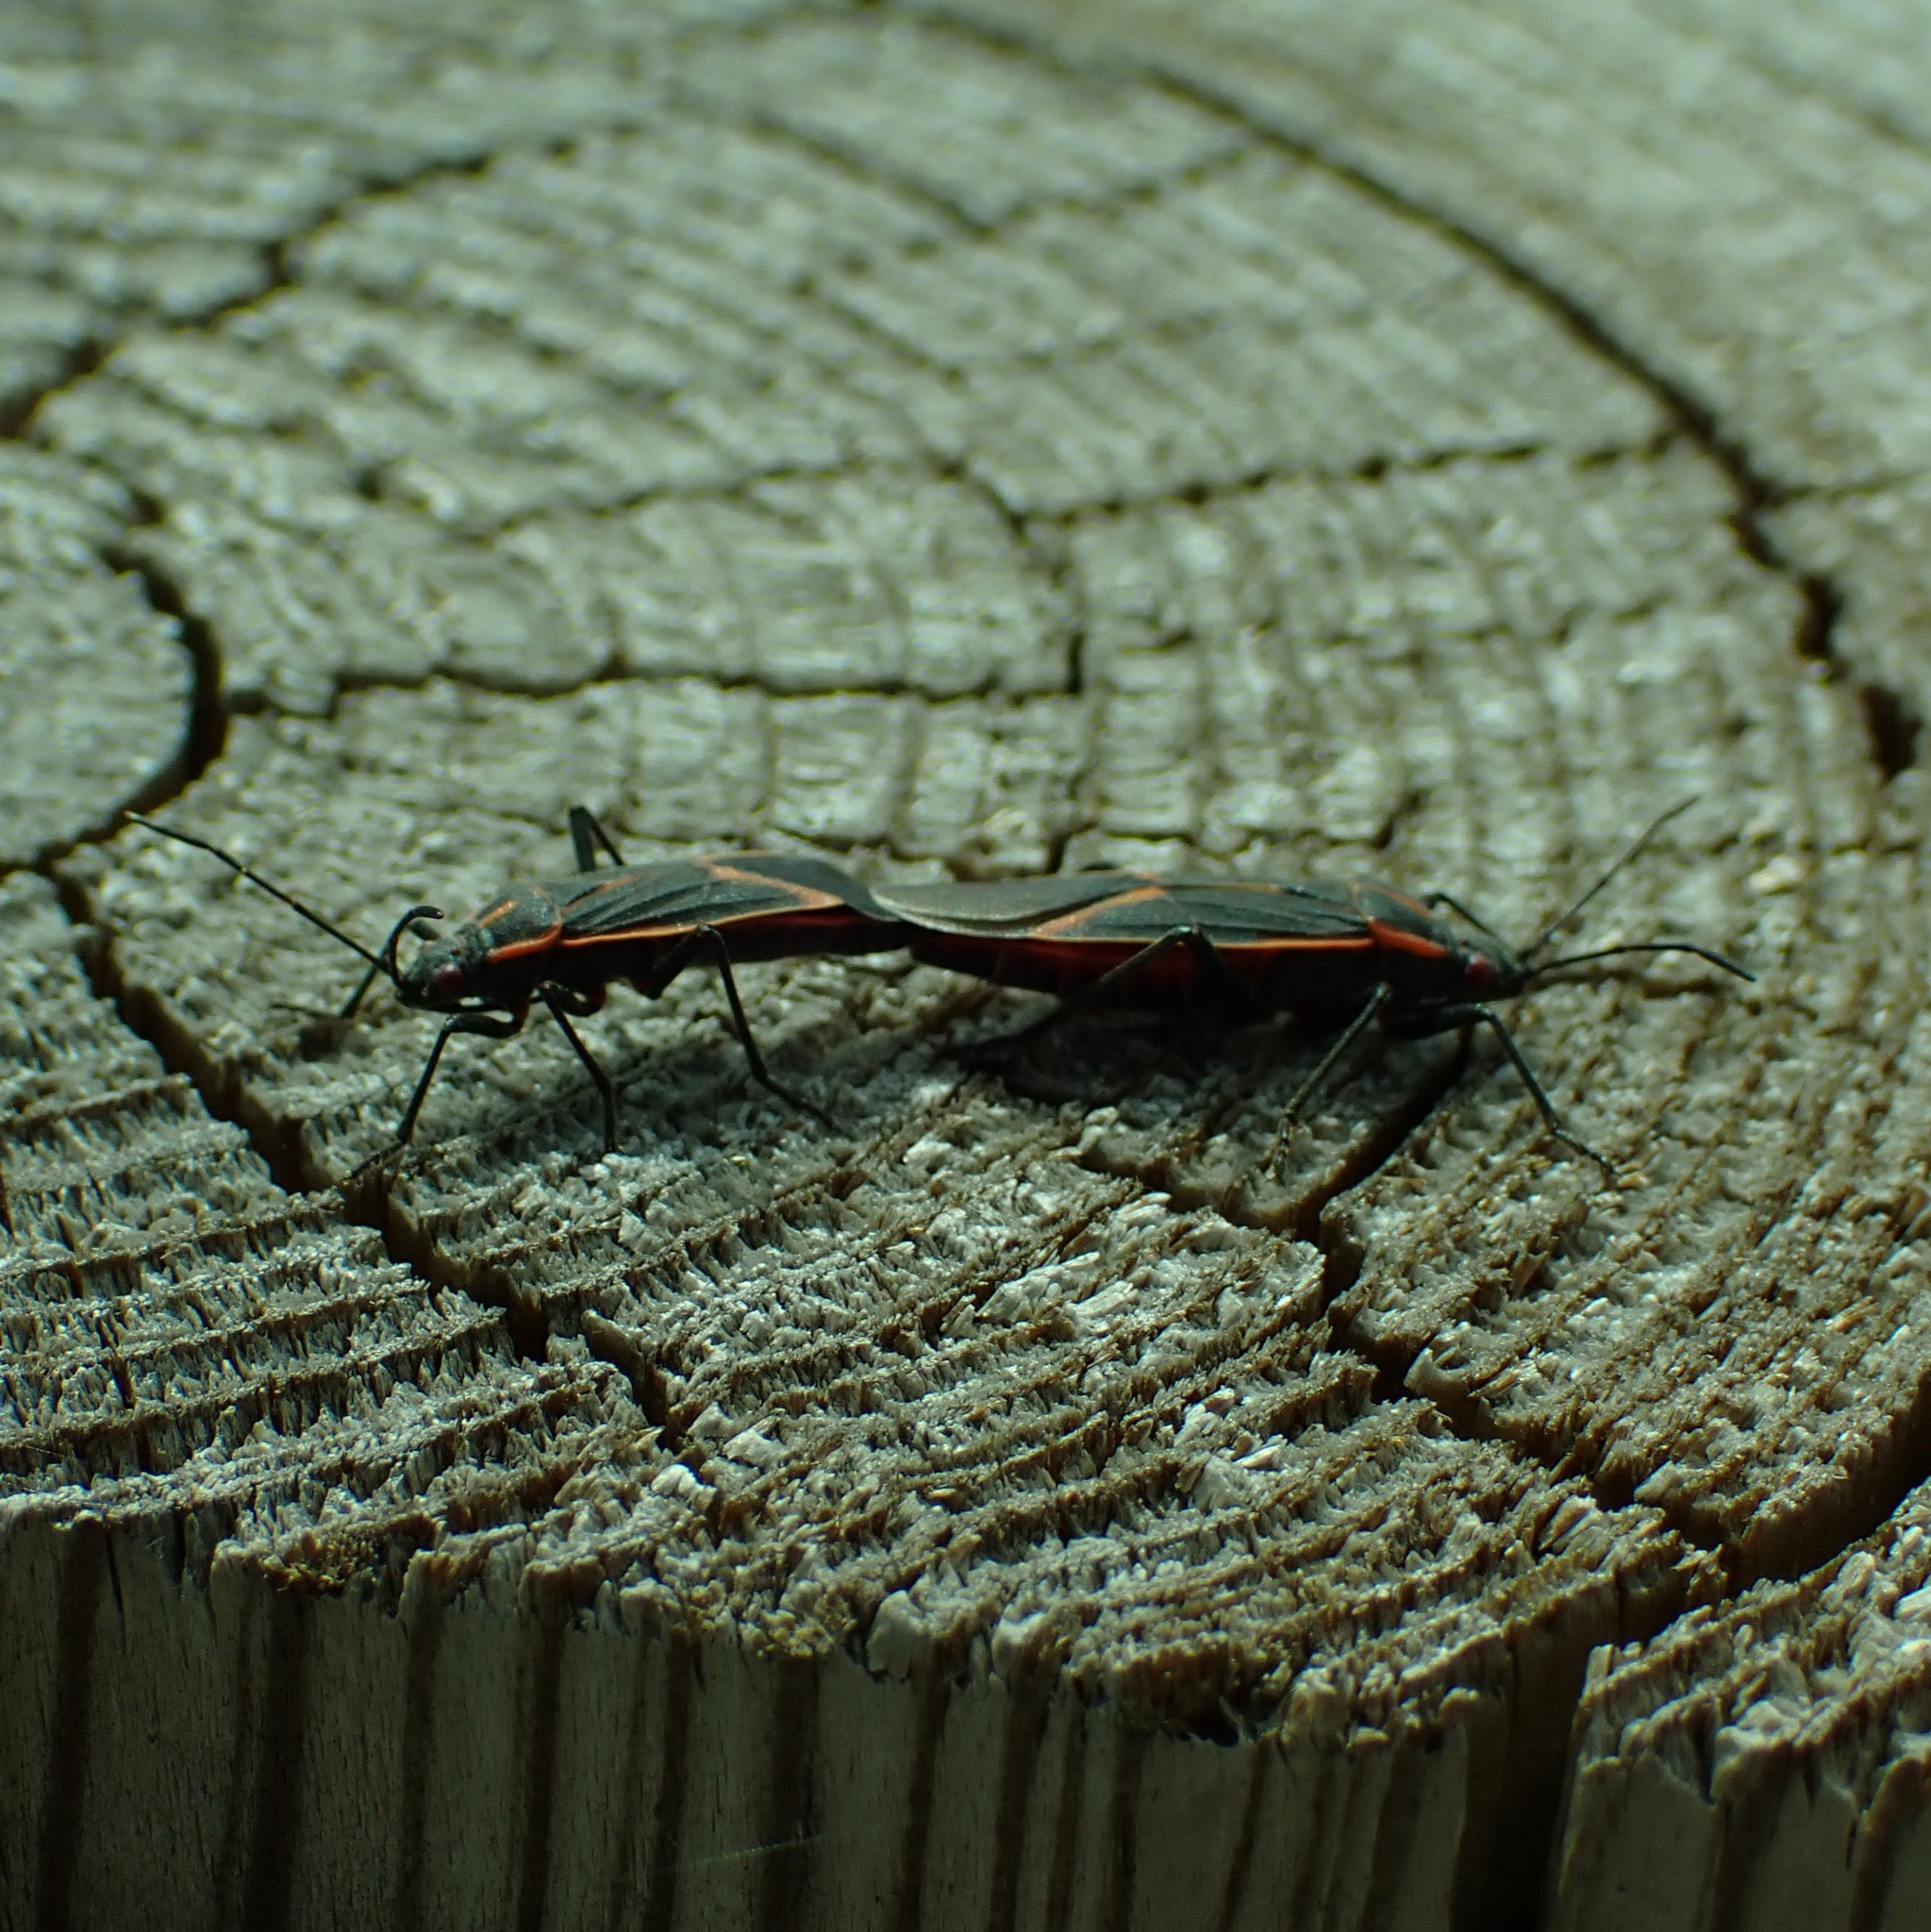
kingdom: Animalia
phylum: Arthropoda
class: Insecta
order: Hemiptera
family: Rhopalidae
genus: Boisea
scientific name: Boisea trivittata
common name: Boxelder bug
